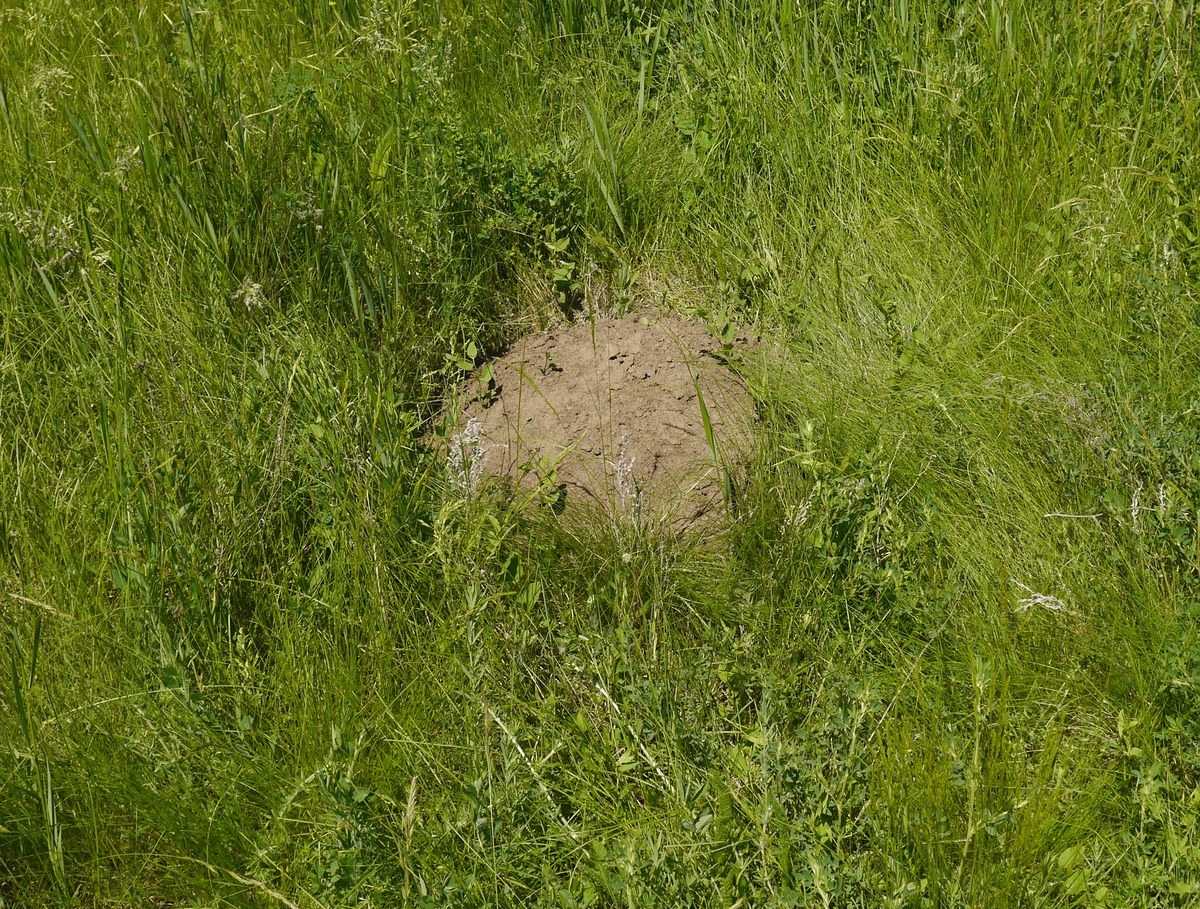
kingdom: Animalia
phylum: Chordata
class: Mammalia
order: Rodentia
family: Spalacidae
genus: Spalax
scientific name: Spalax zemni
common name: Podolsk blind mole rat
